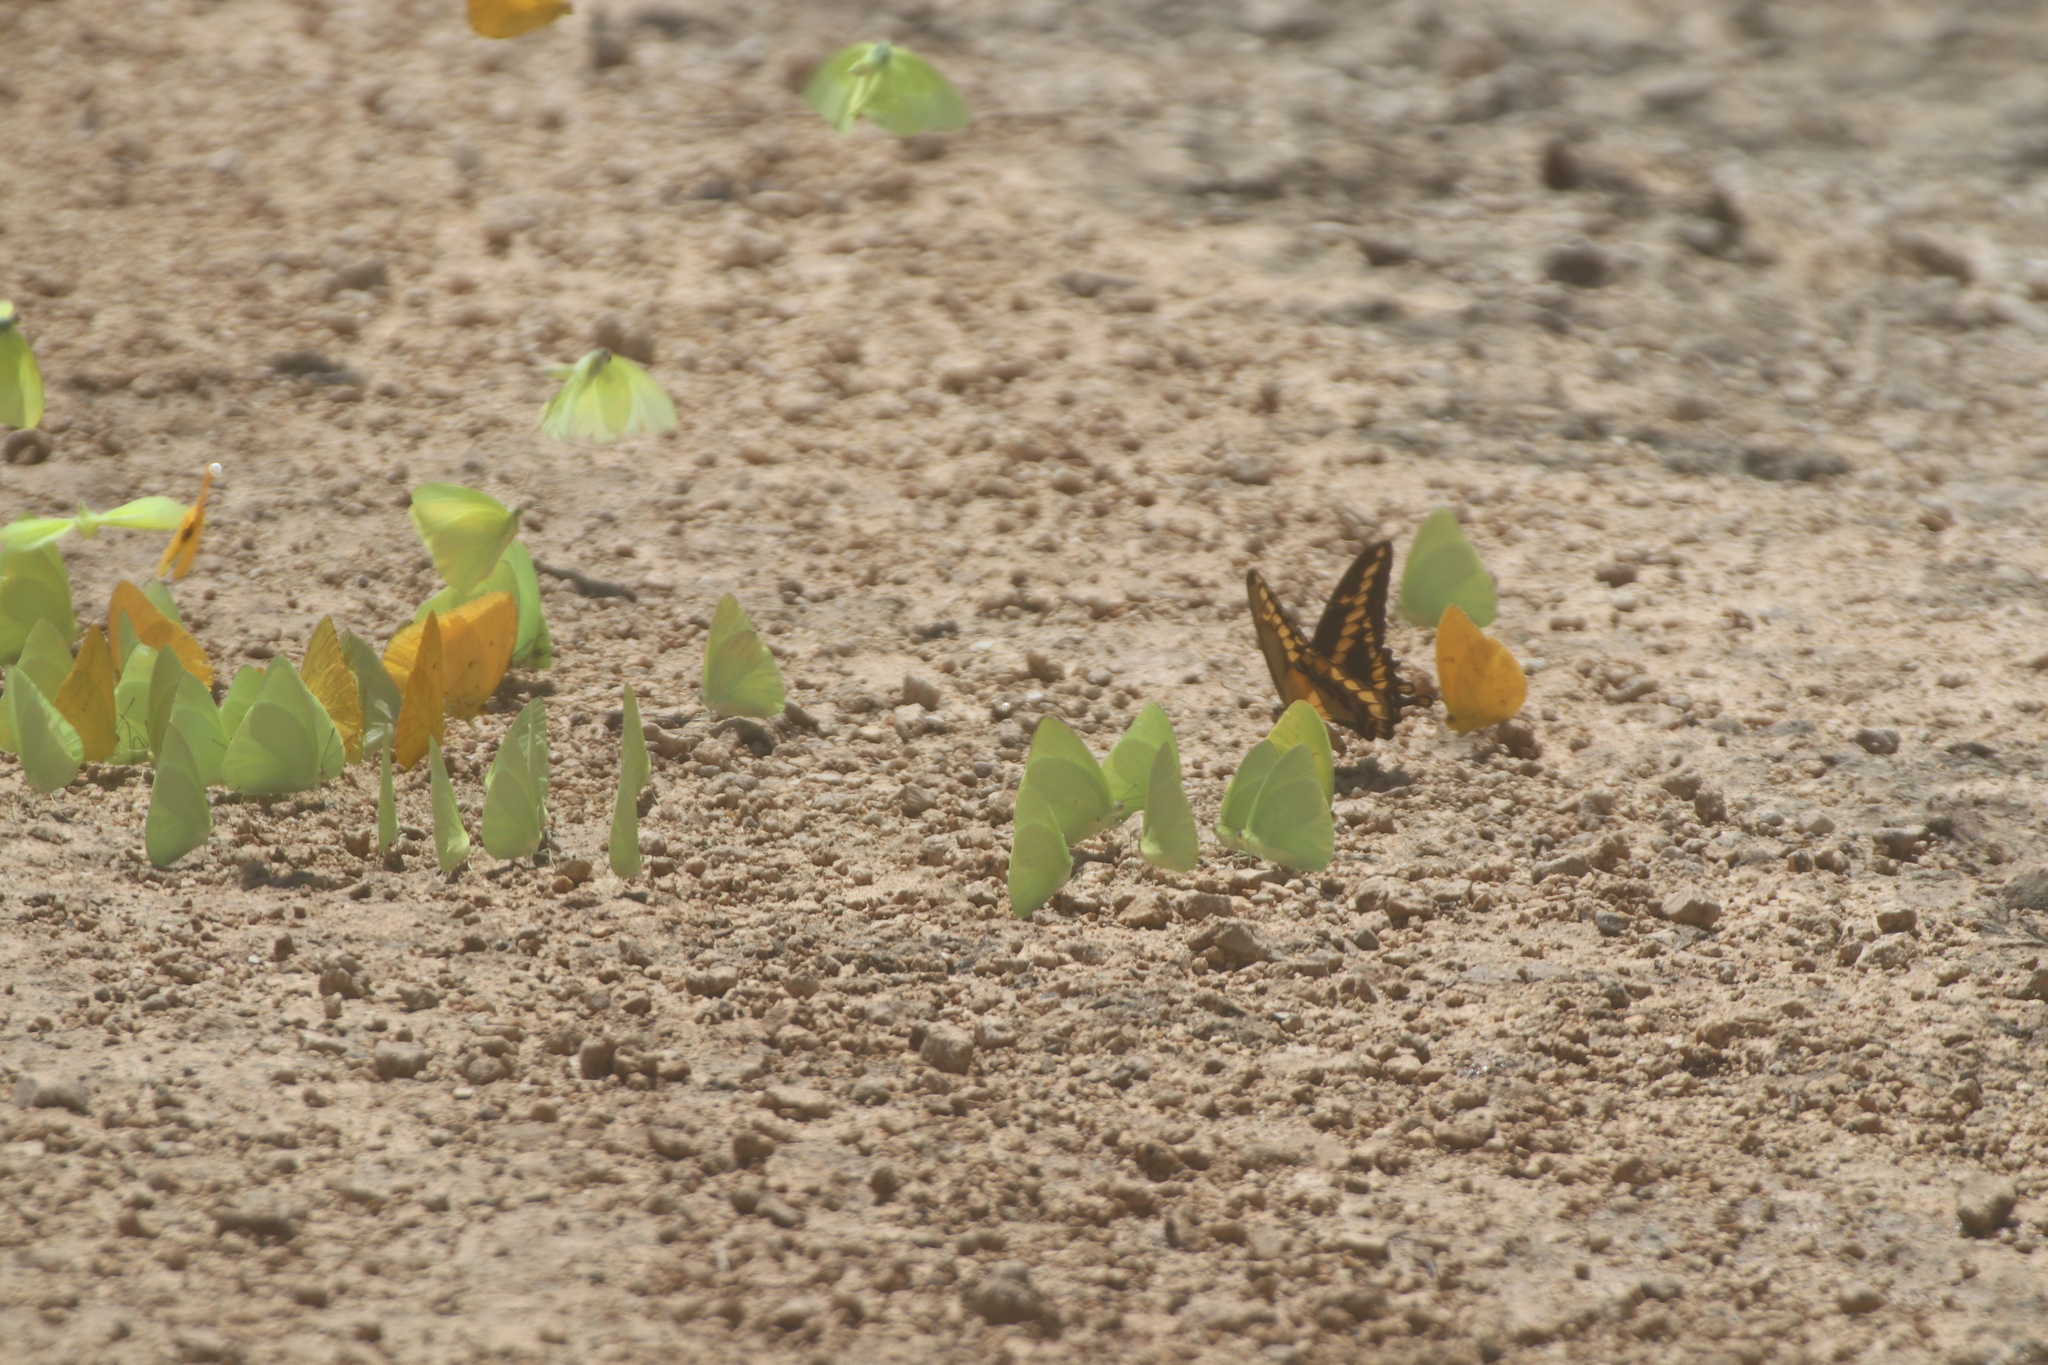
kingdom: Animalia
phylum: Arthropoda
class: Insecta
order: Lepidoptera
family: Papilionidae
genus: Papilio
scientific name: Papilio rumiko
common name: Western giant swallowtail
